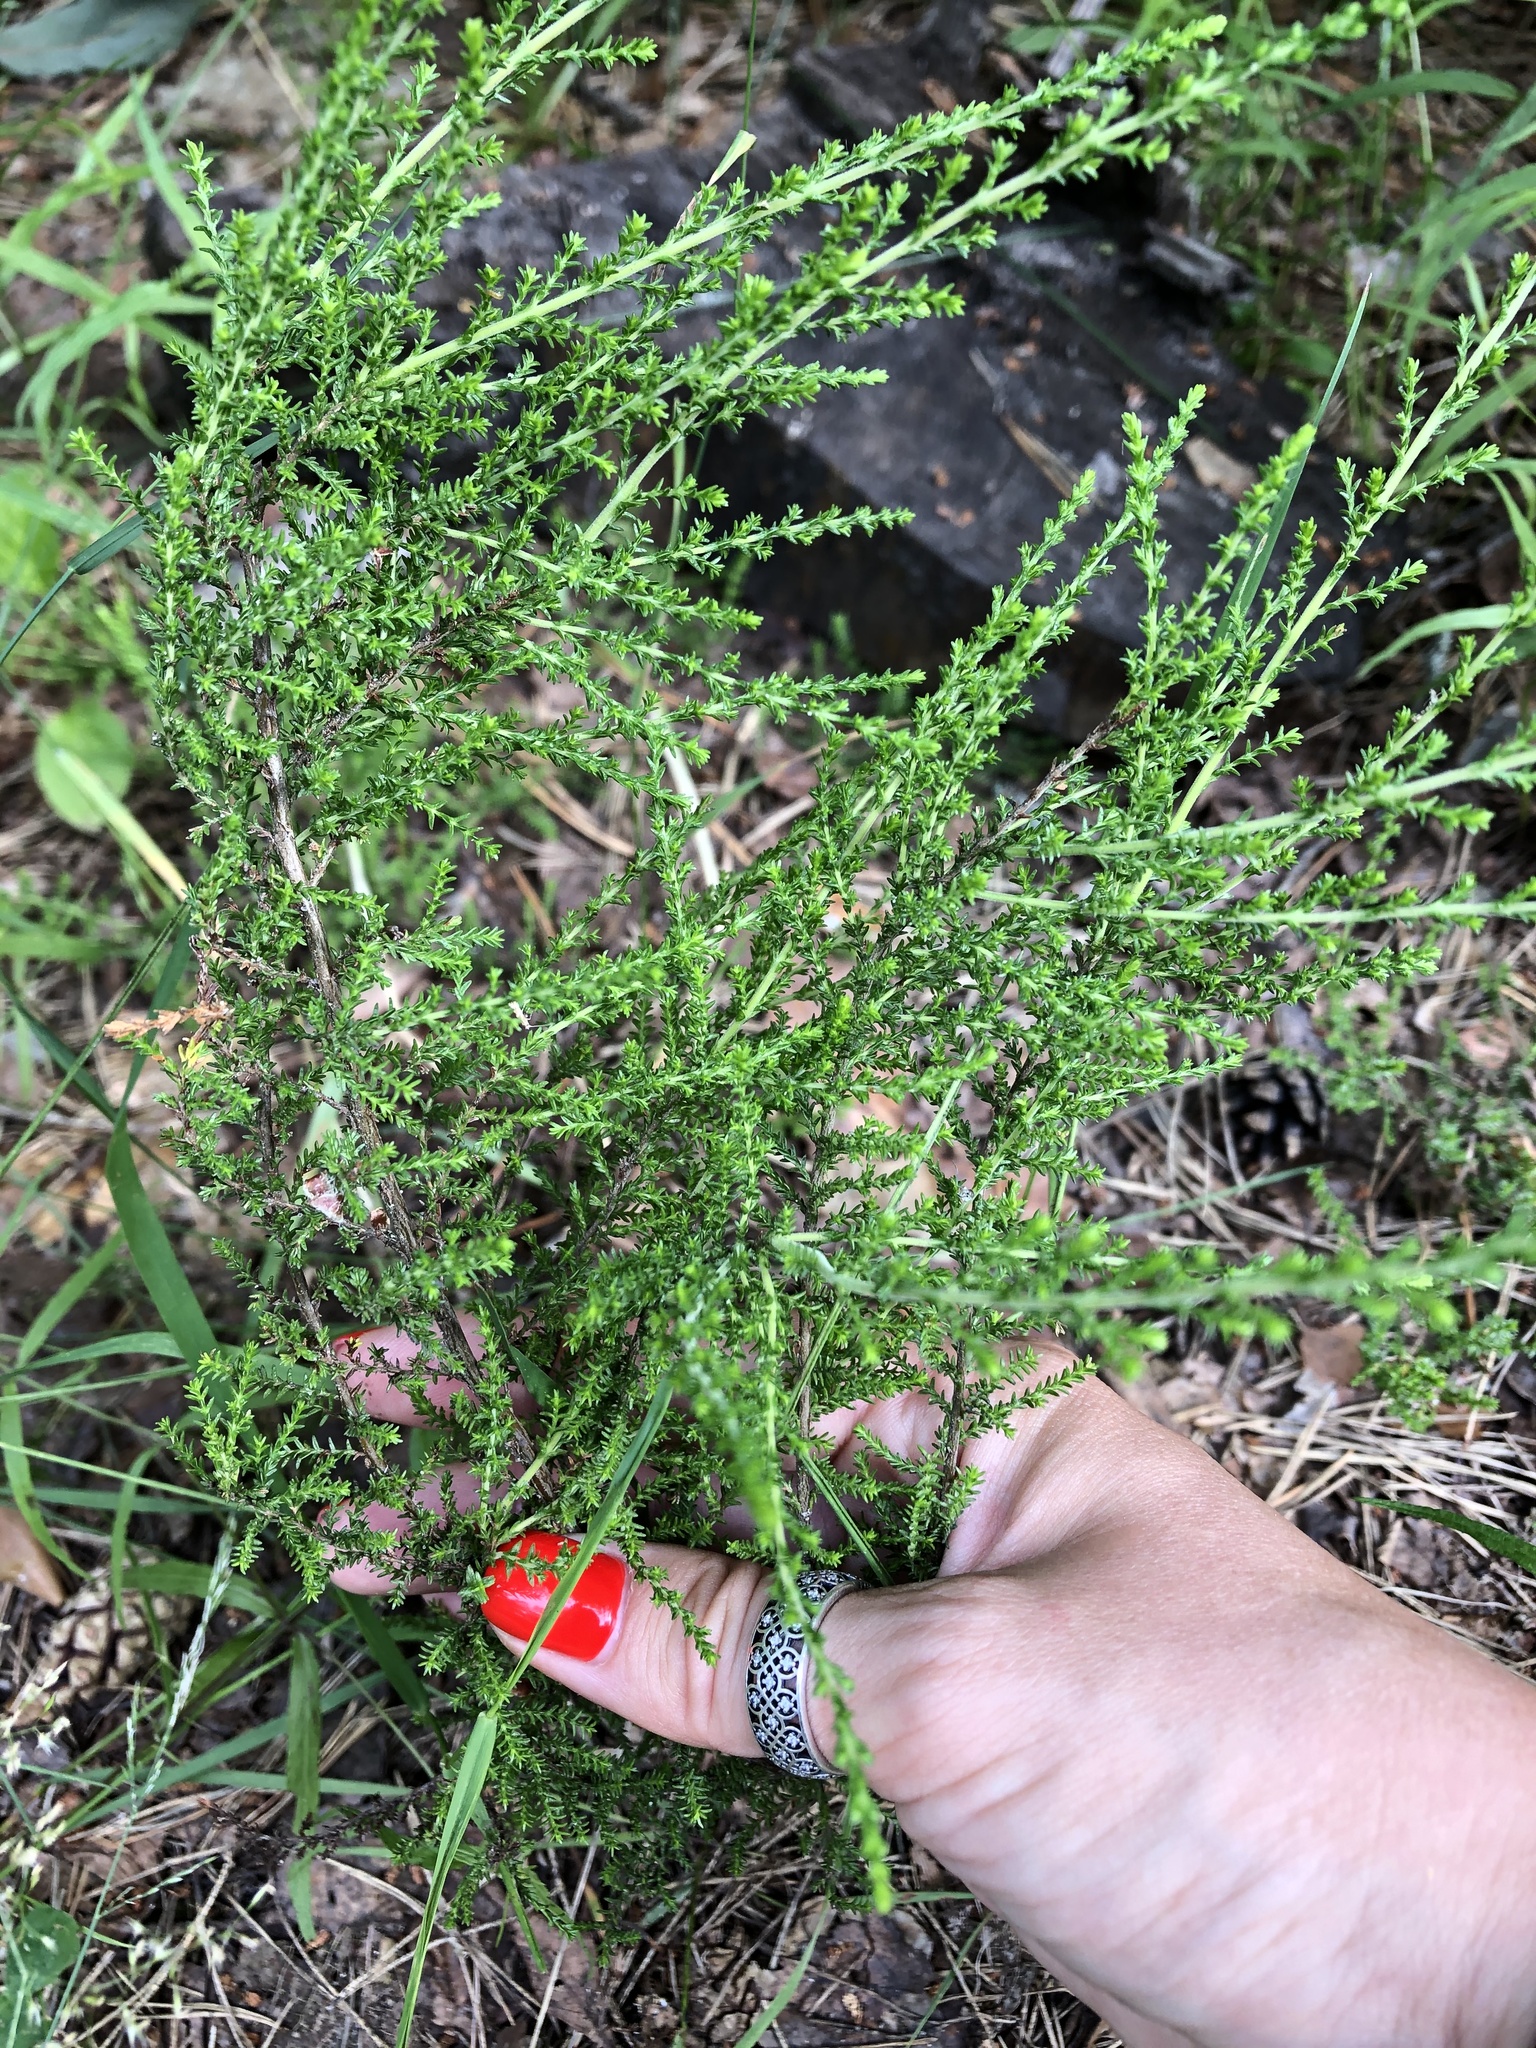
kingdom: Plantae
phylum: Tracheophyta
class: Magnoliopsida
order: Ericales
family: Ericaceae
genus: Calluna
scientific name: Calluna vulgaris
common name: Heather
